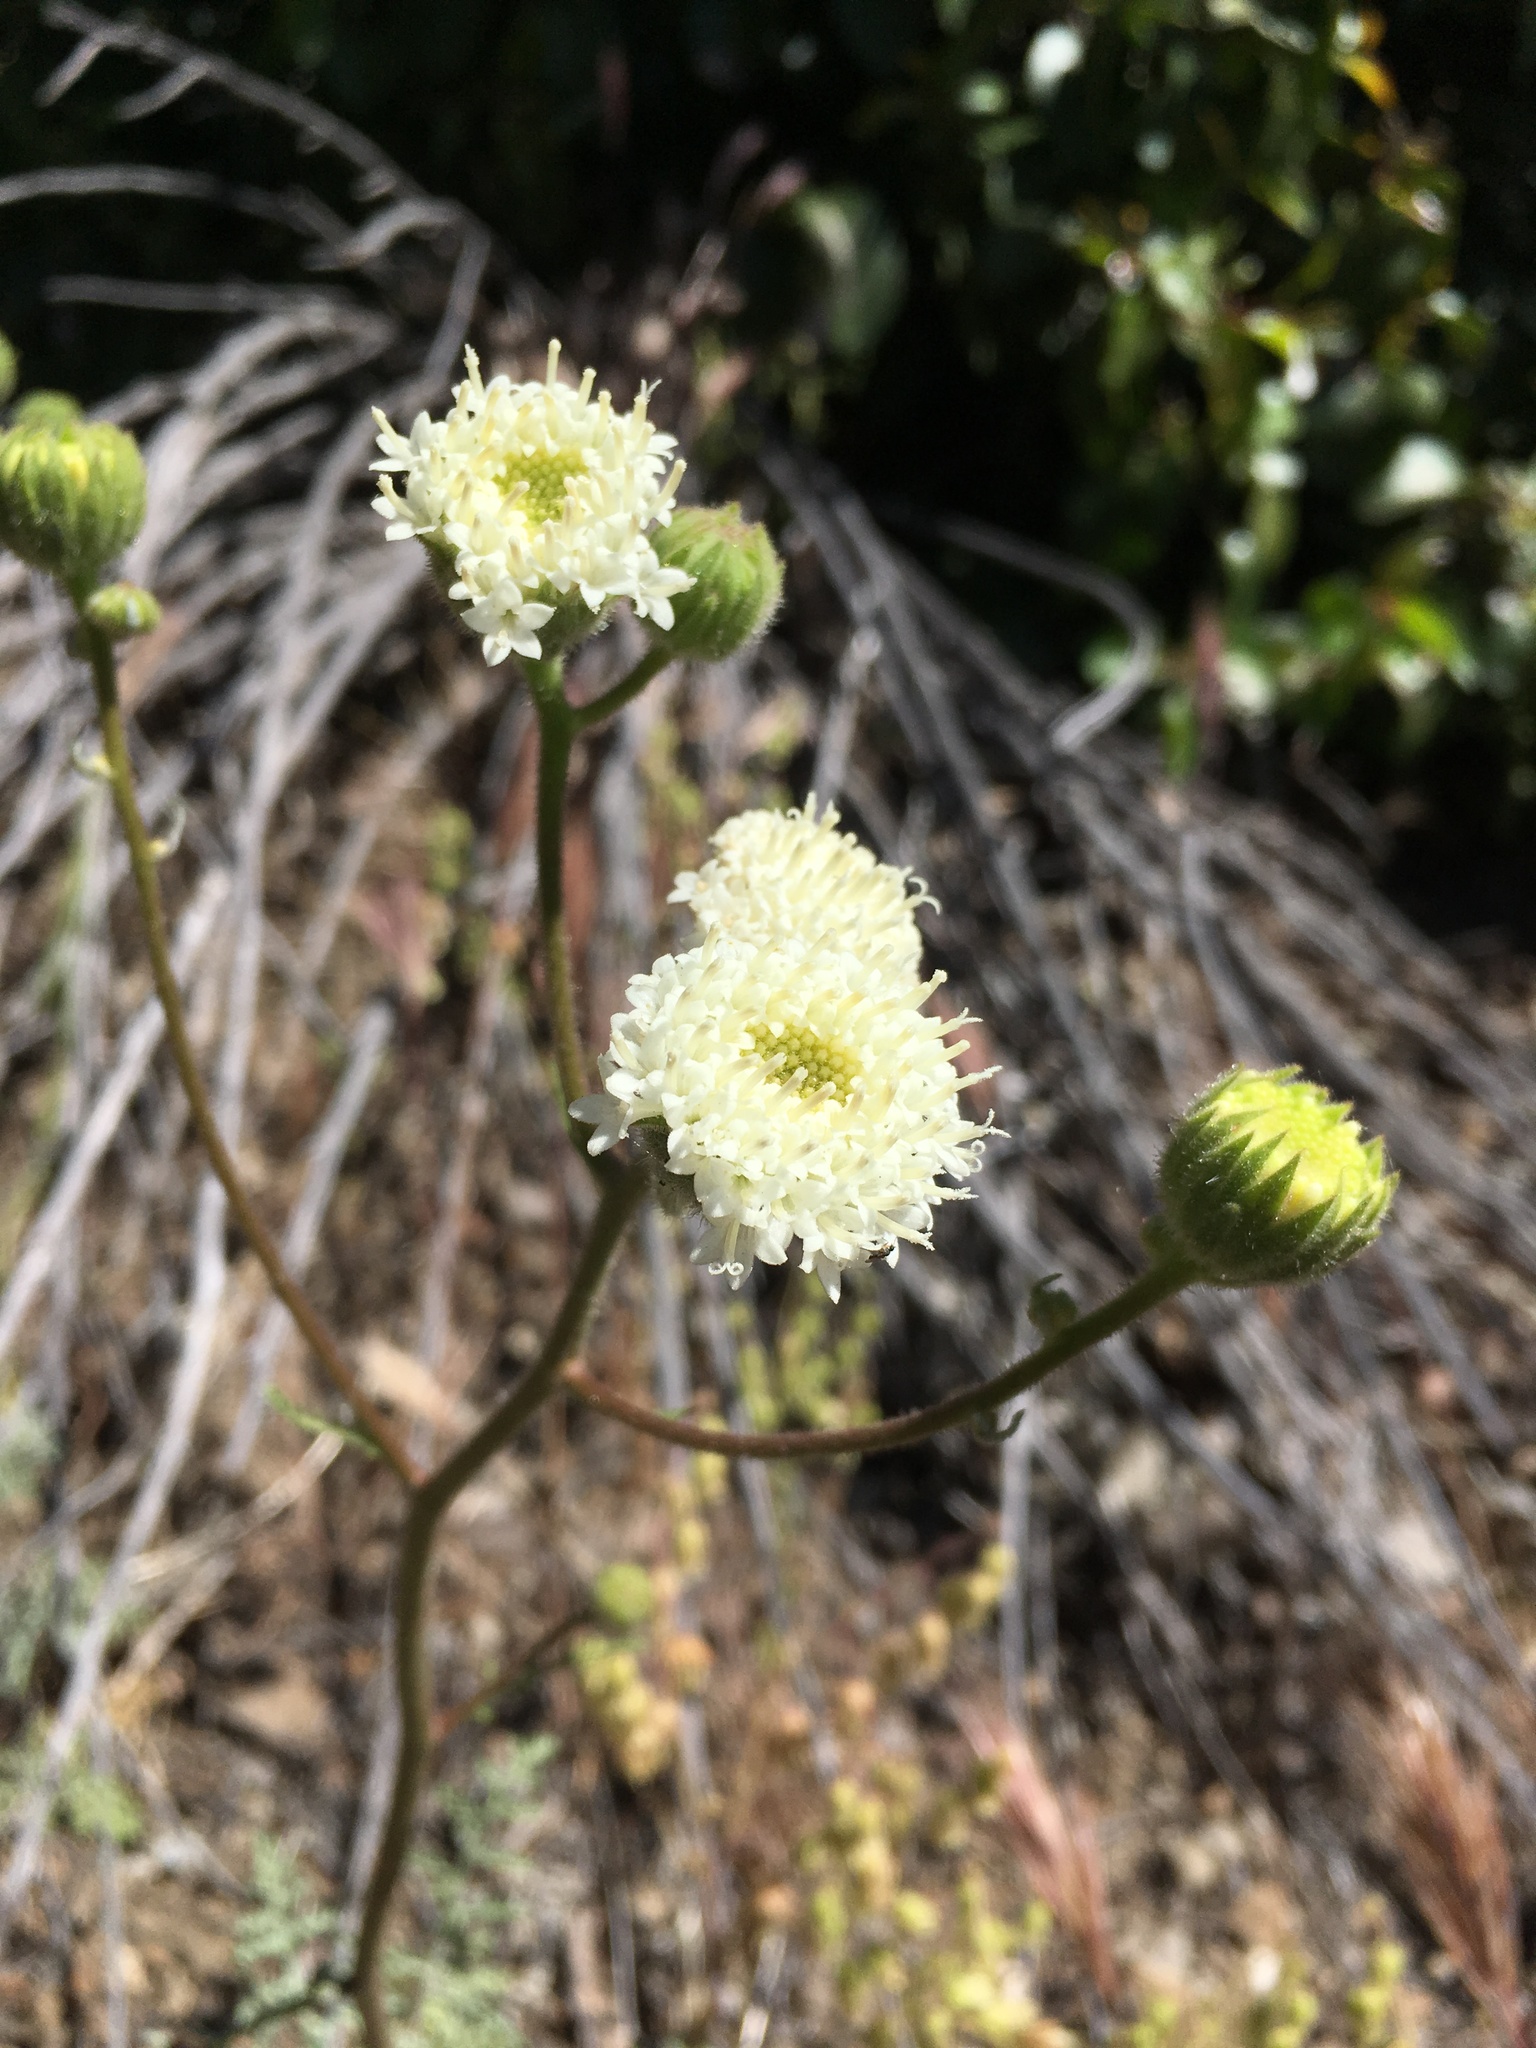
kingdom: Plantae
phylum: Tracheophyta
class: Magnoliopsida
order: Asterales
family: Asteraceae
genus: Chaenactis
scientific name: Chaenactis artemisiifolia
